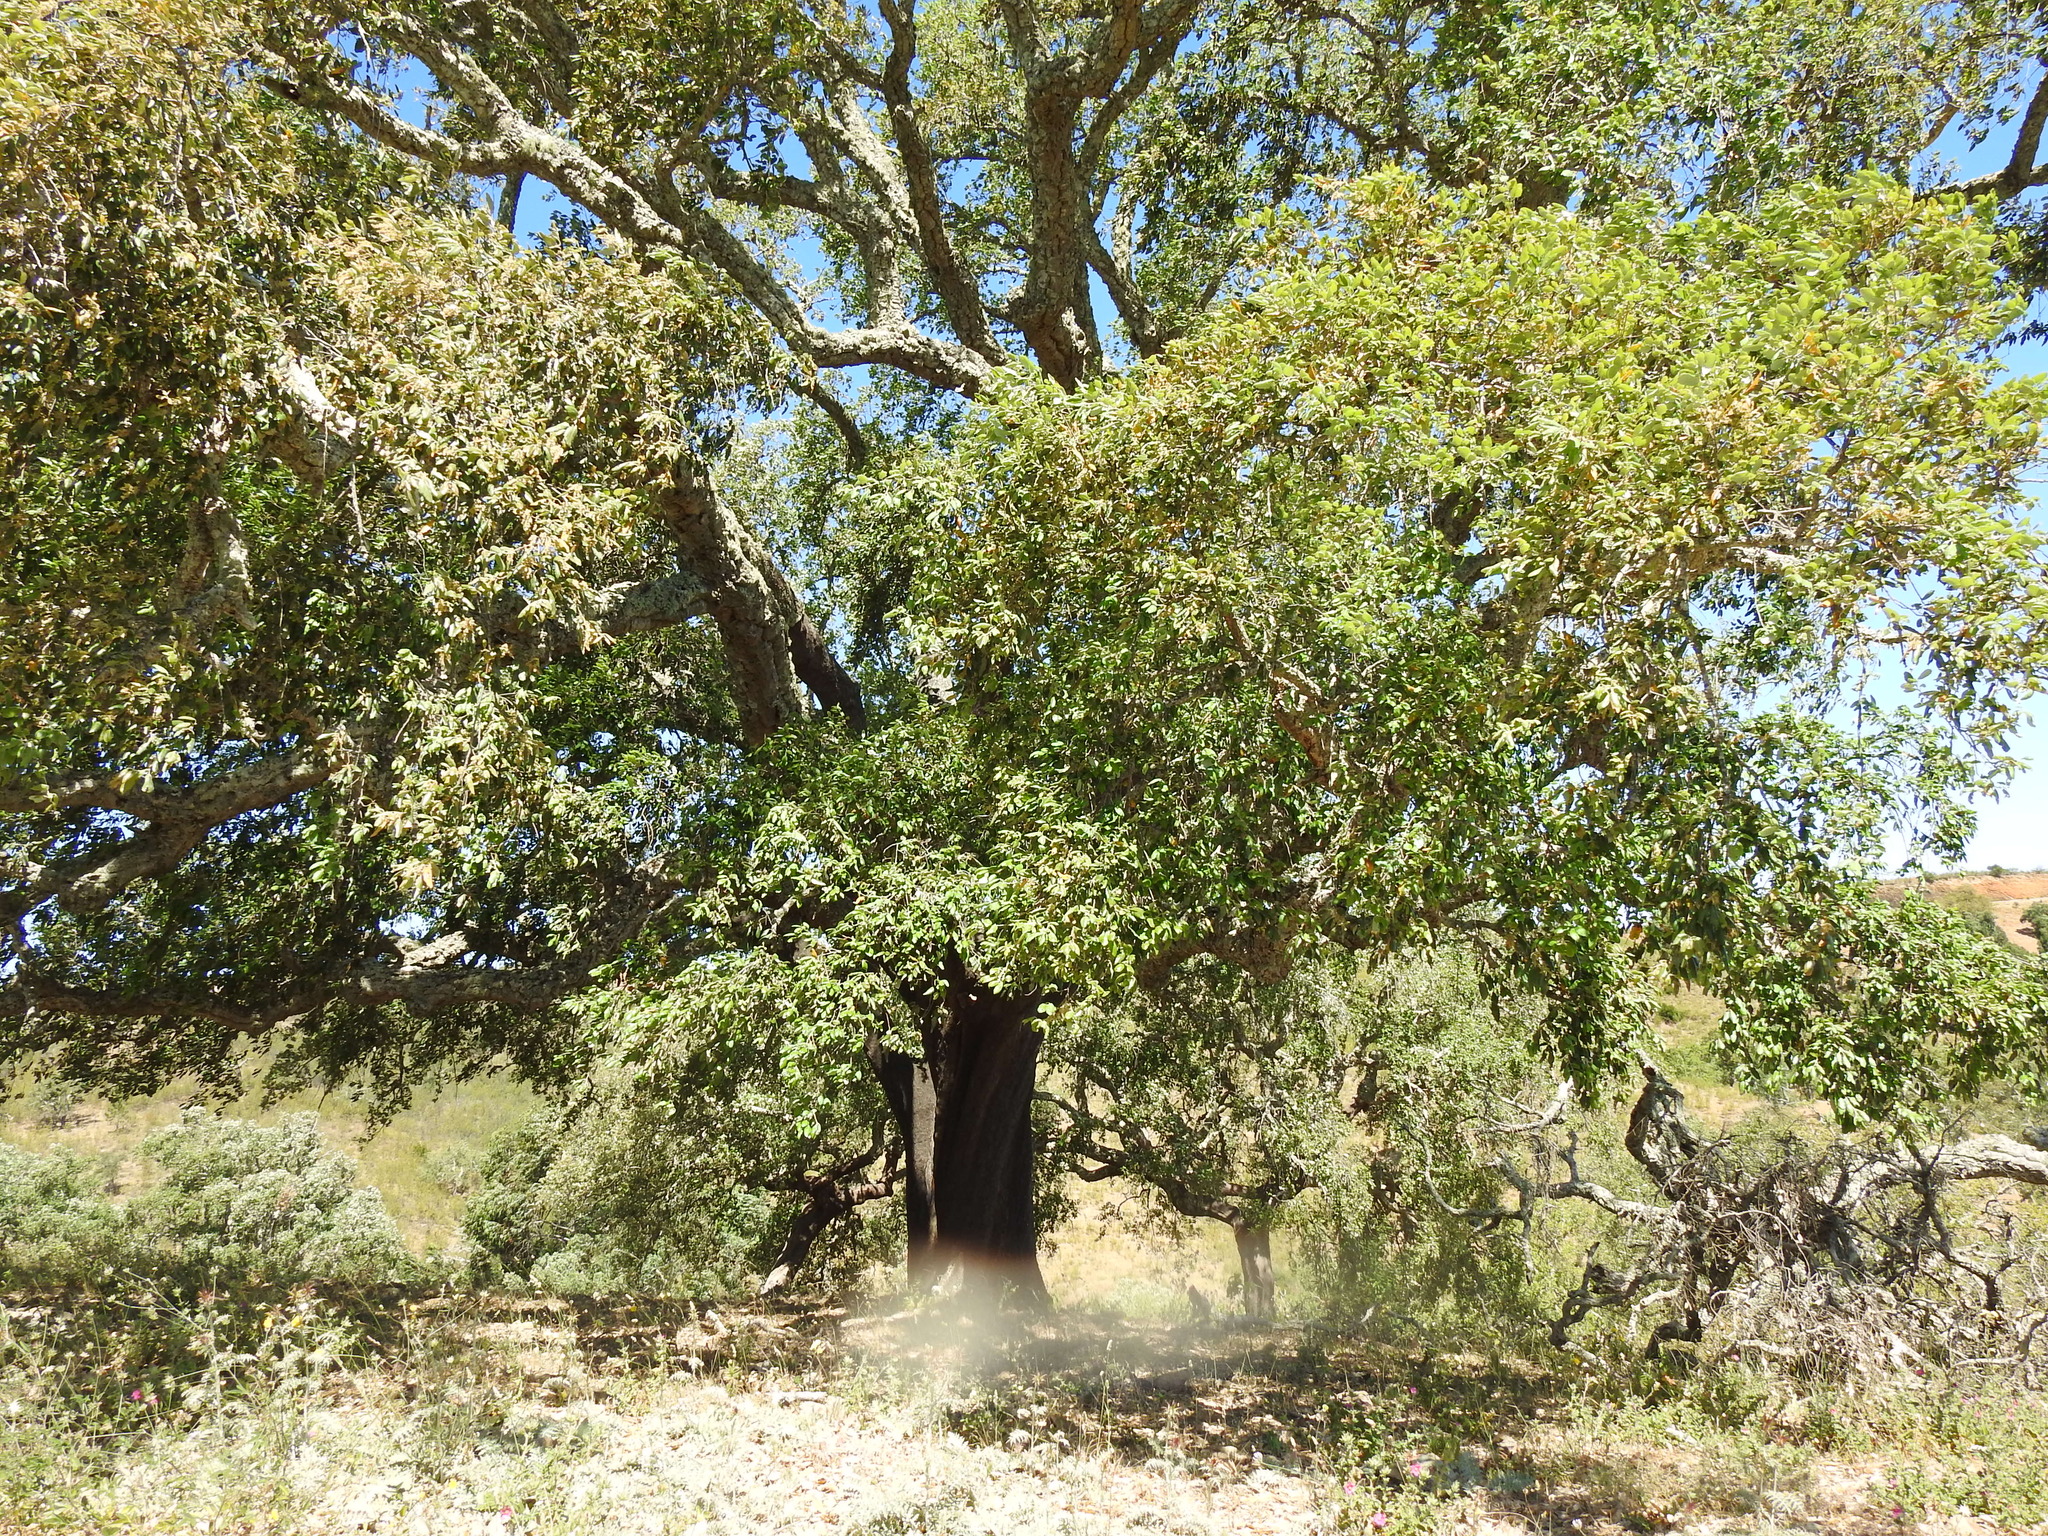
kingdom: Plantae
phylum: Tracheophyta
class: Magnoliopsida
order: Fagales
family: Fagaceae
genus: Quercus
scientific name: Quercus suber
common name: Cork oak
